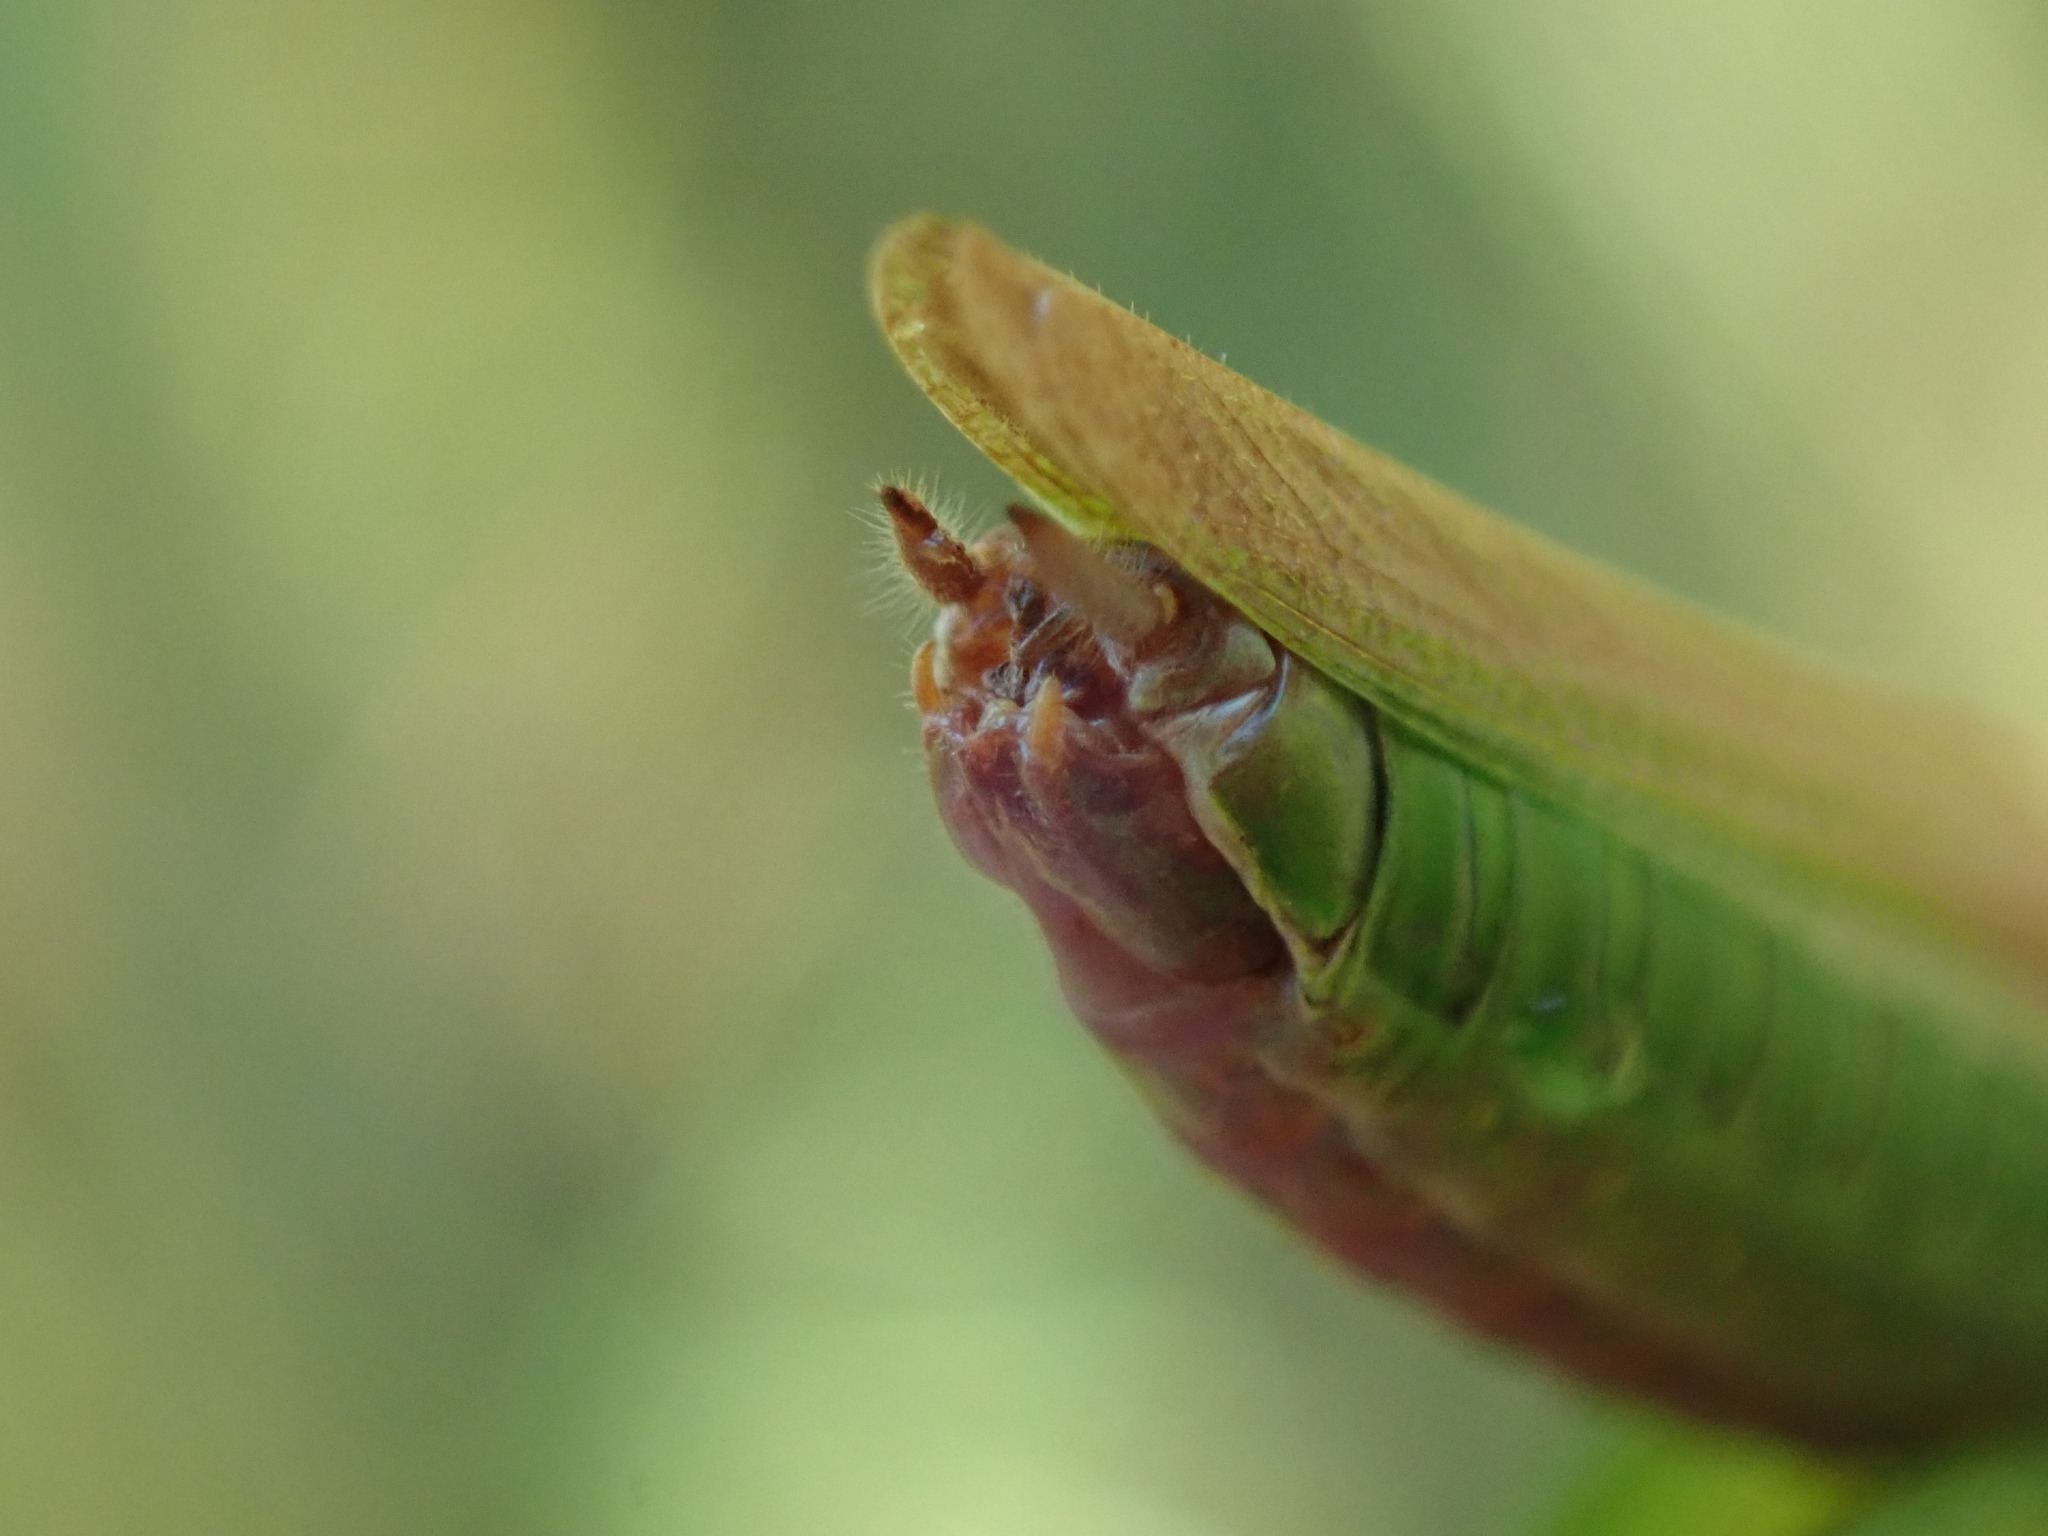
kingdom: Animalia
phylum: Arthropoda
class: Insecta
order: Orthoptera
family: Tettigoniidae
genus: Conocephalus
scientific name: Conocephalus fuscus
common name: Long-winged conehead
